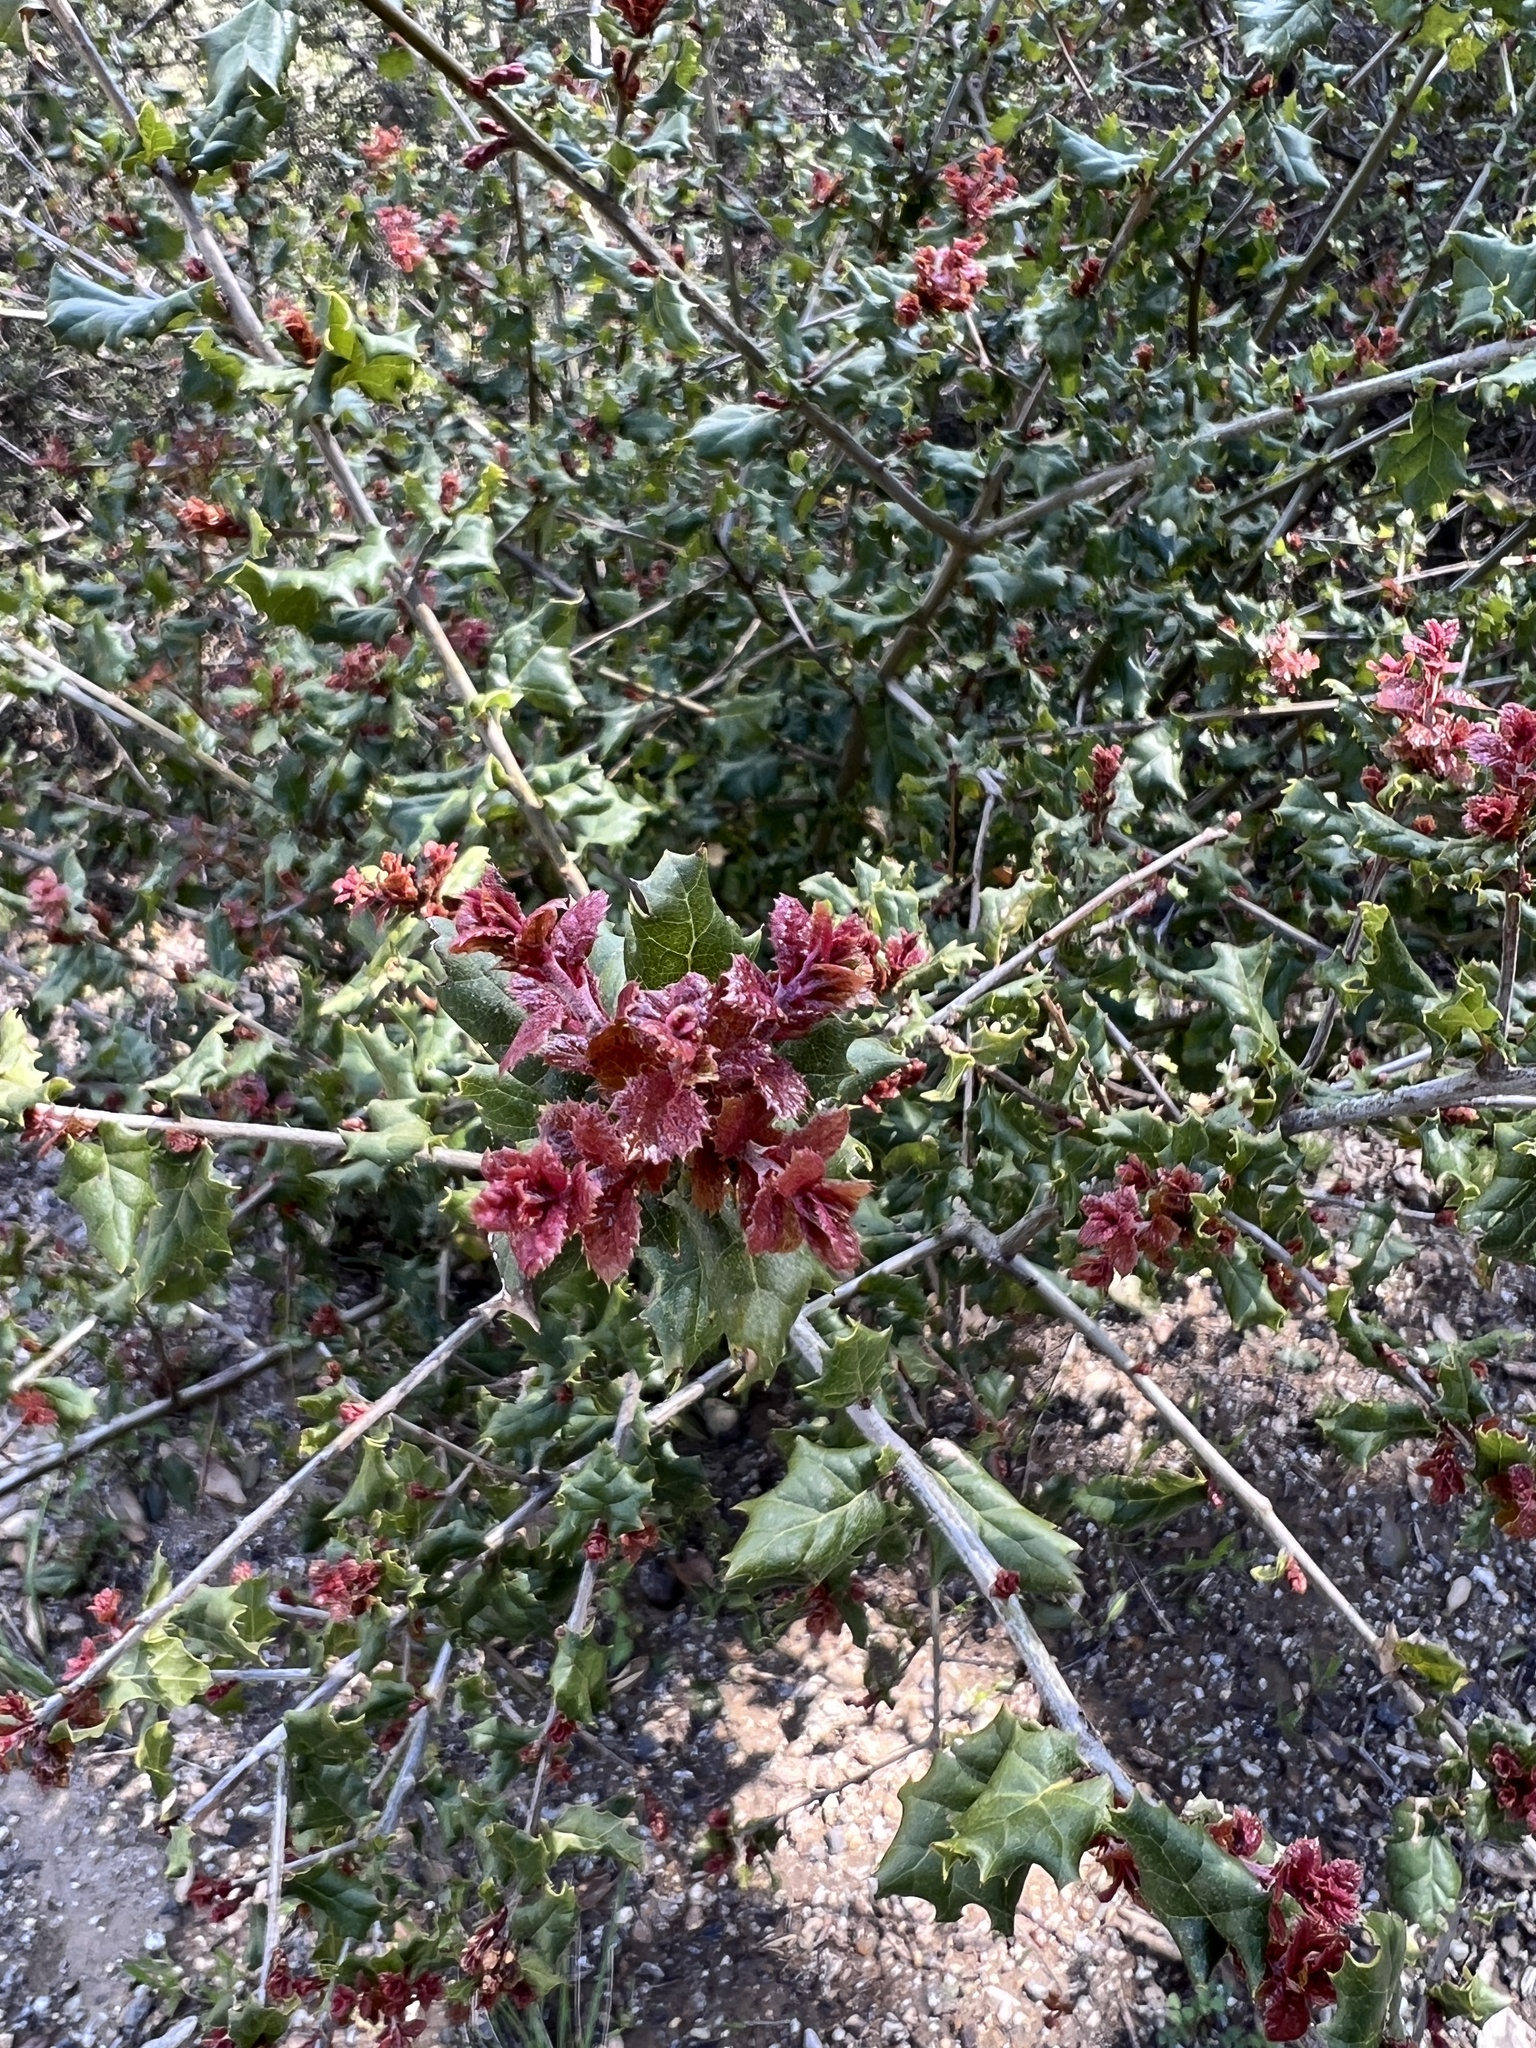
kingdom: Plantae
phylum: Tracheophyta
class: Magnoliopsida
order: Fagales
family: Fagaceae
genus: Quercus
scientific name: Quercus agrifolia
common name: California live oak
